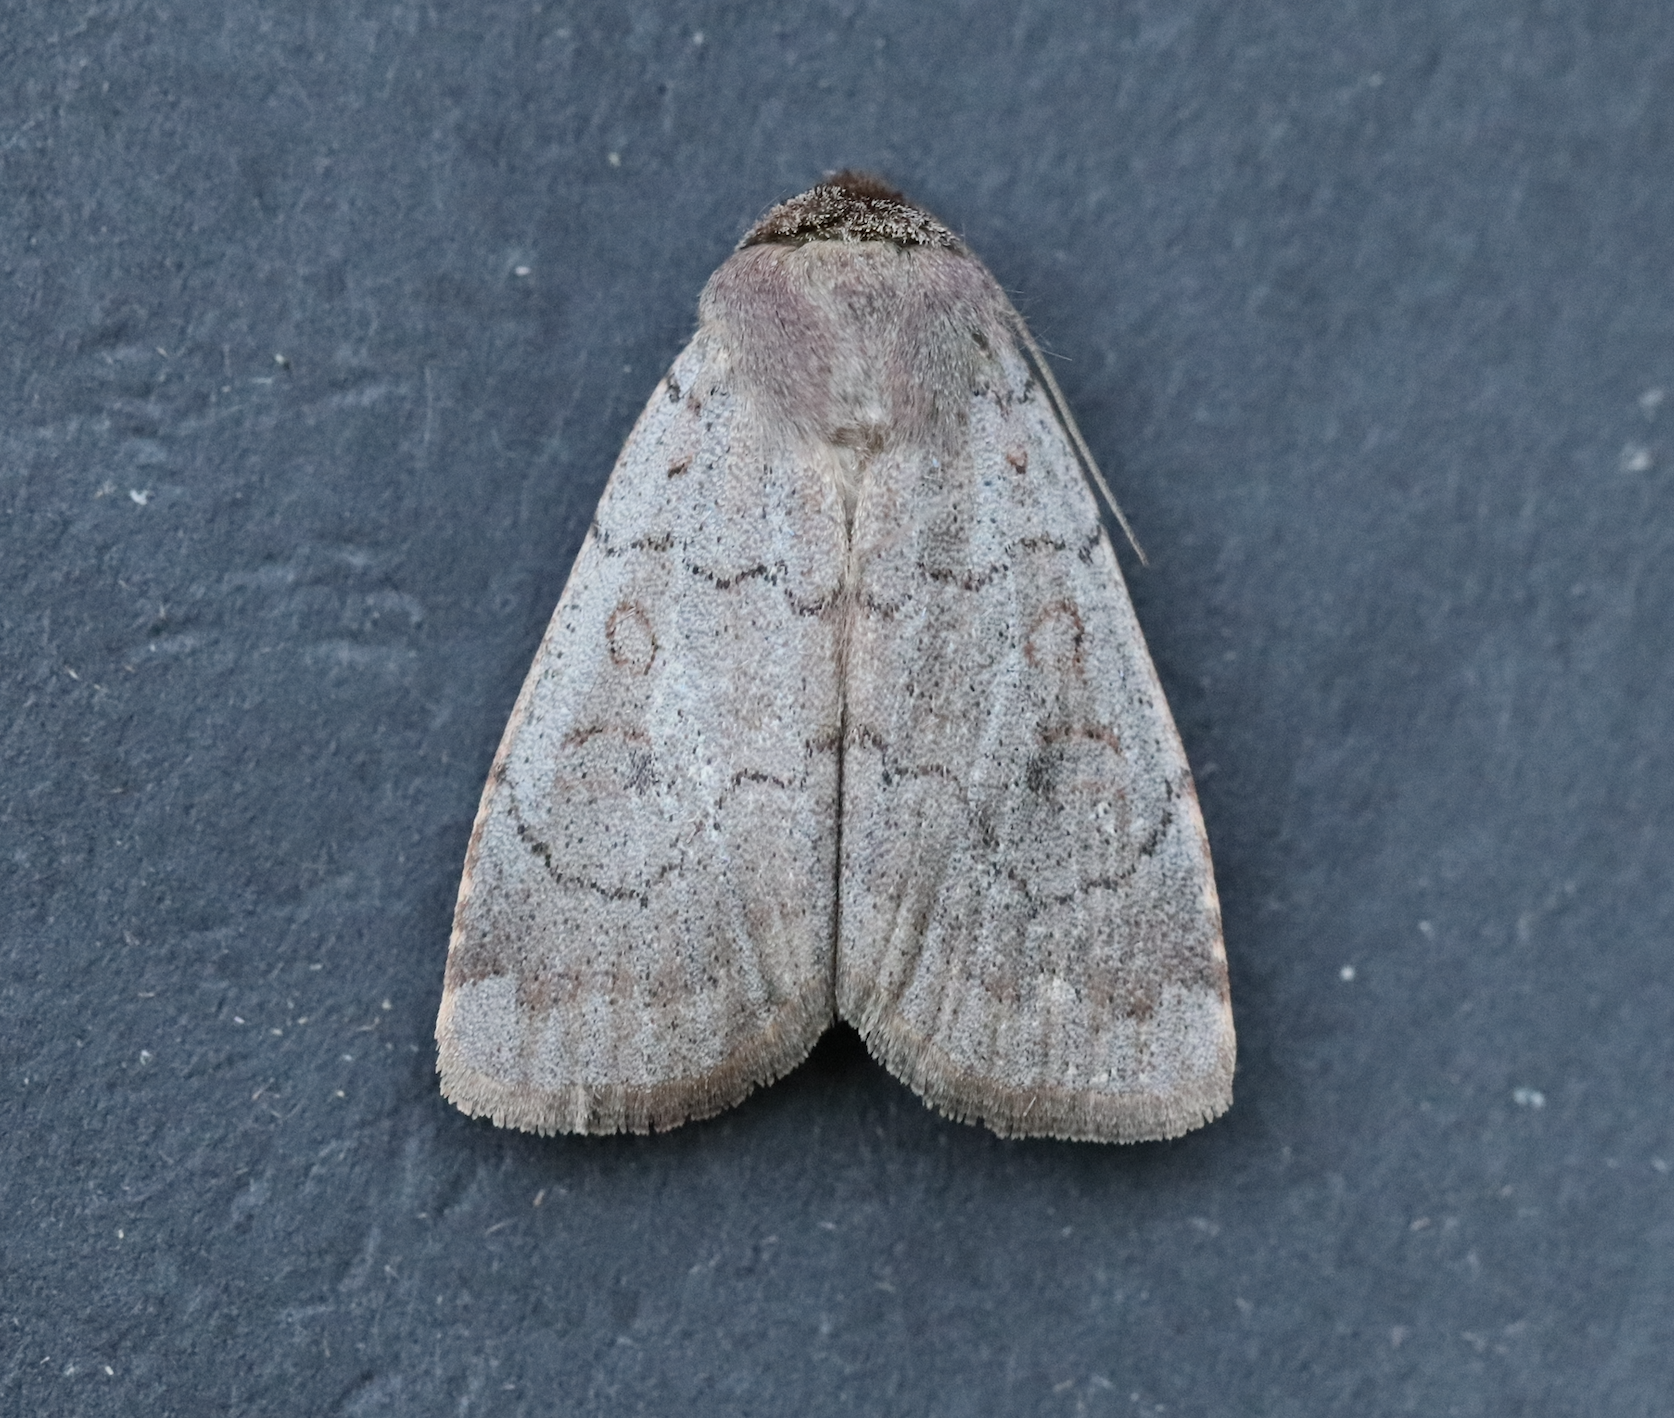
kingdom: Animalia
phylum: Arthropoda
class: Insecta
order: Lepidoptera
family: Noctuidae
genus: Protolampra
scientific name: Protolampra rufipectus
